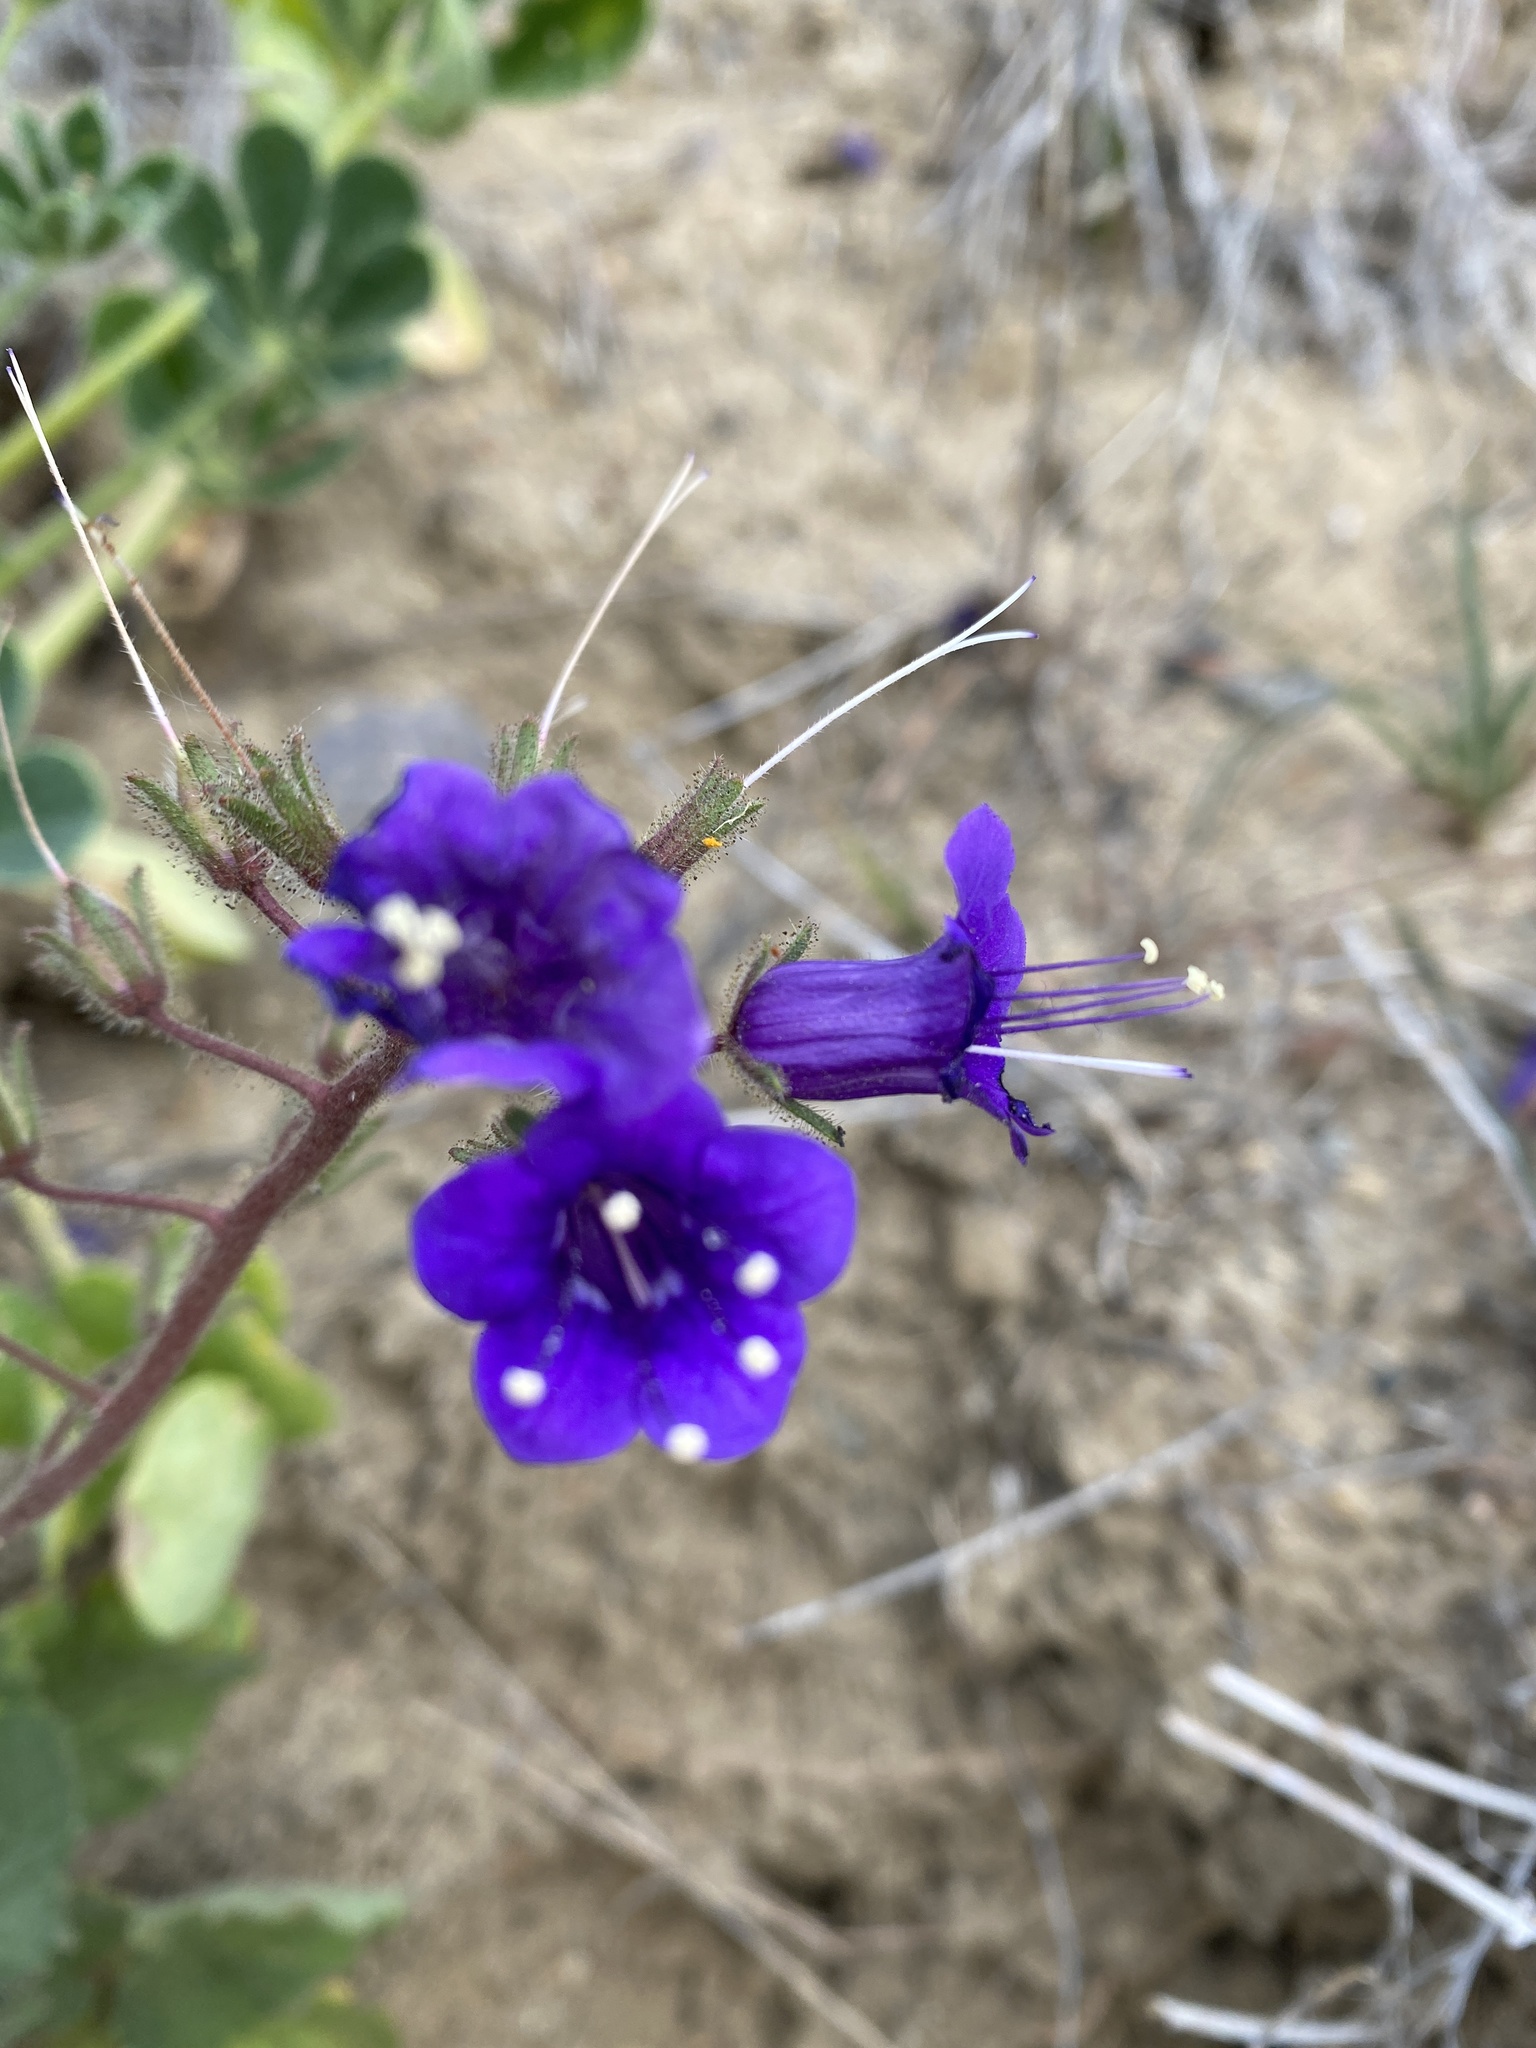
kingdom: Plantae
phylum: Tracheophyta
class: Magnoliopsida
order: Boraginales
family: Hydrophyllaceae
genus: Phacelia
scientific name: Phacelia minor
